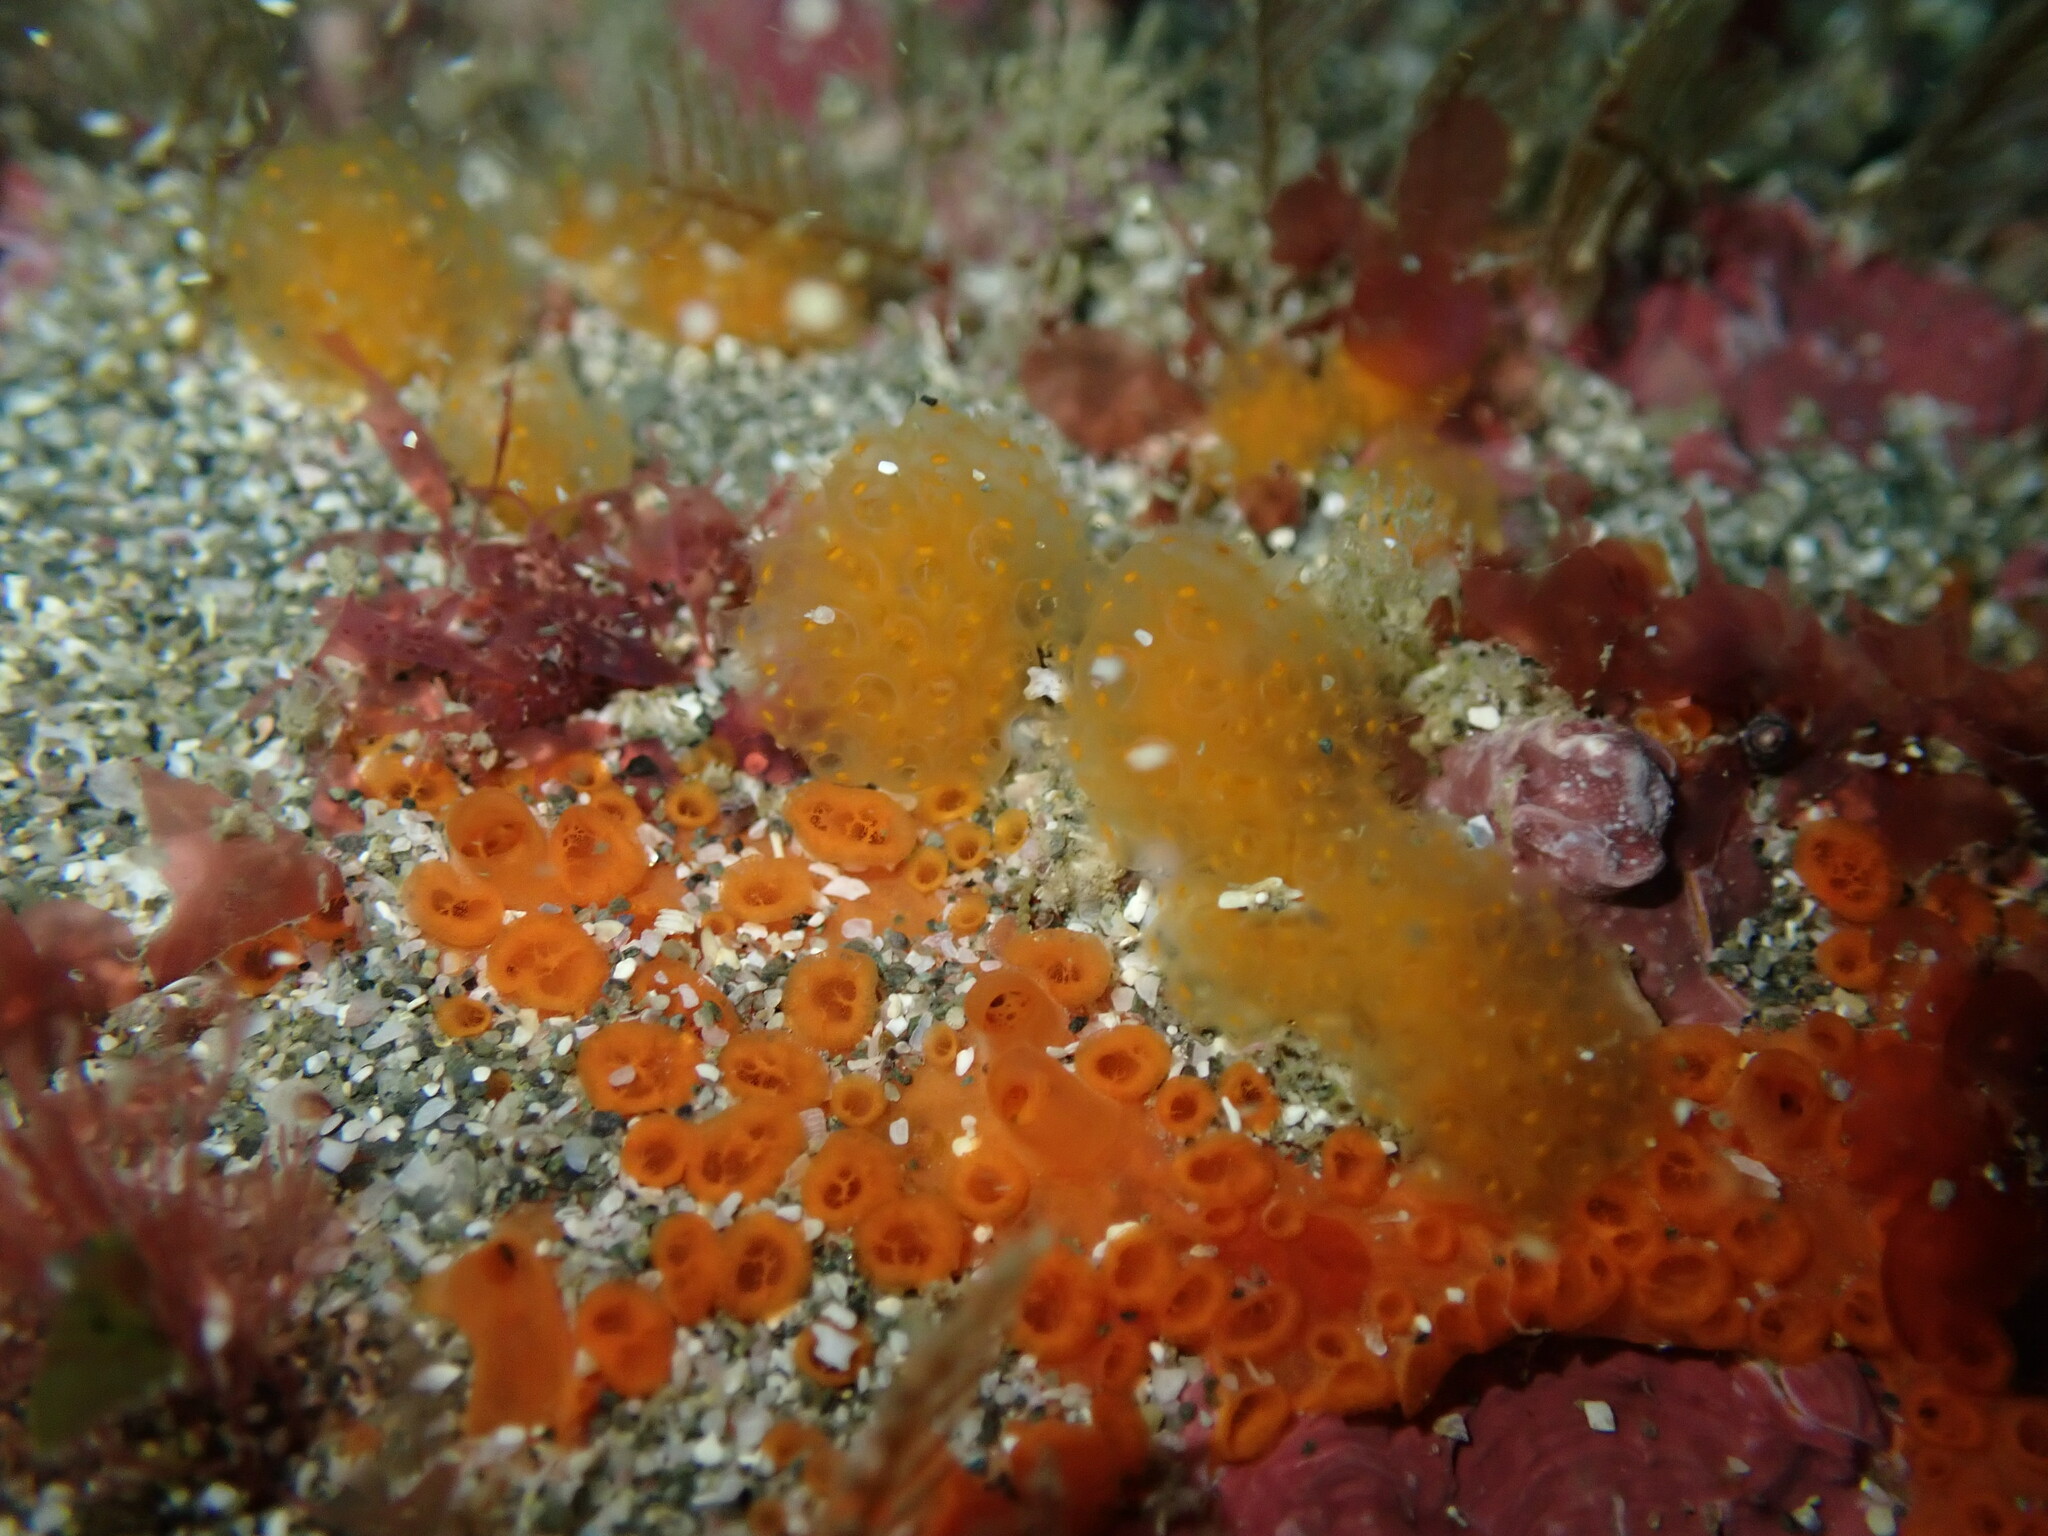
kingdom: Animalia
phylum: Chordata
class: Ascidiacea
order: Aplousobranchia
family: Pseudodistomidae
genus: Pseudodistoma
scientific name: Pseudodistoma novaezelandiae
